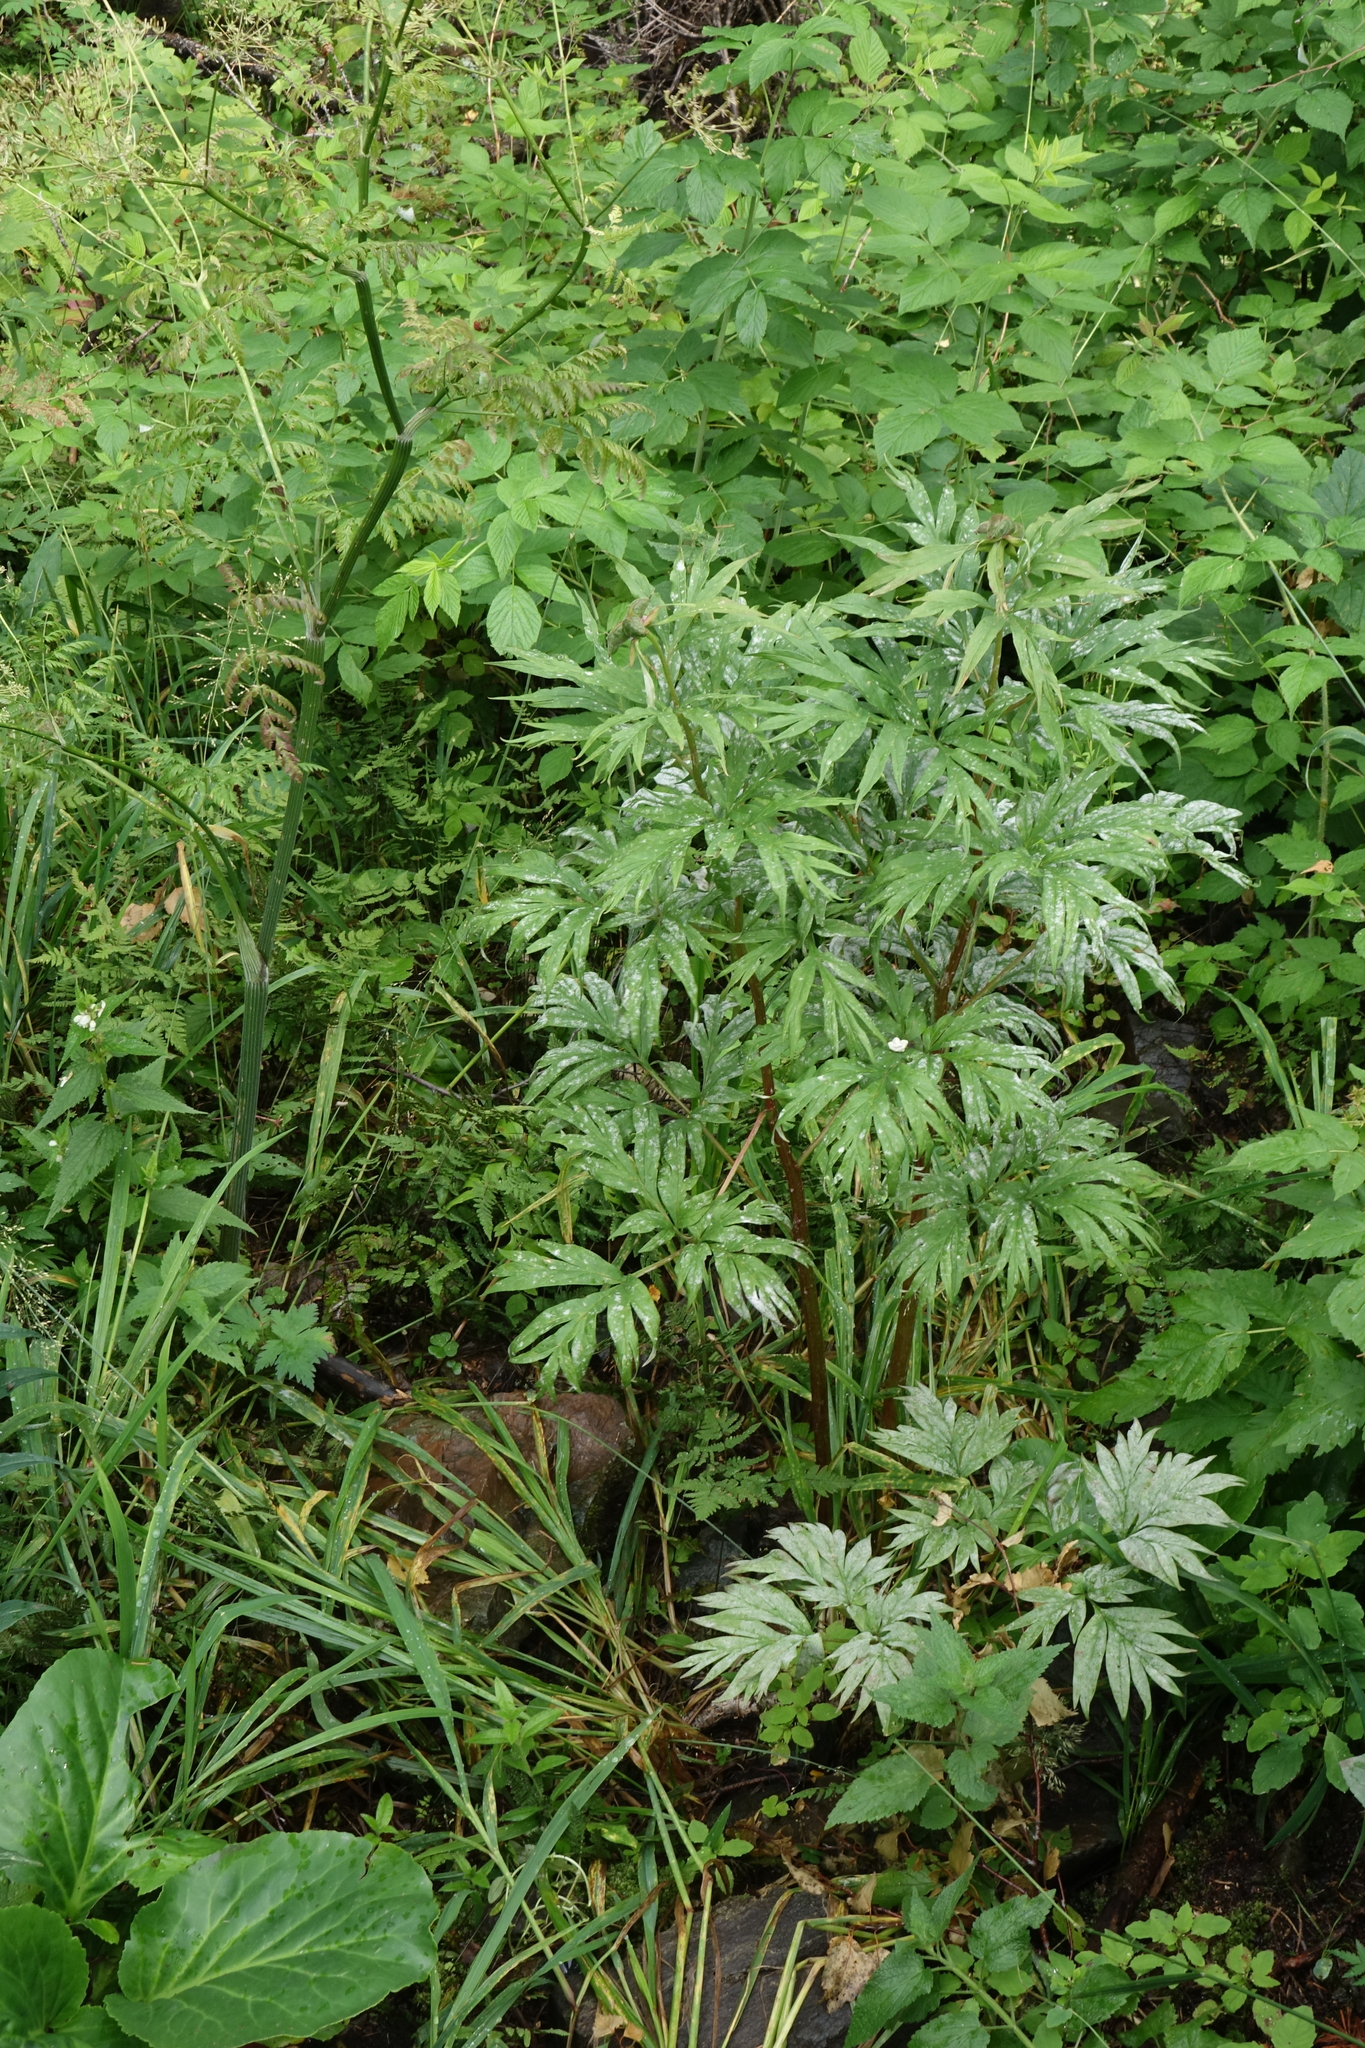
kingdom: Plantae
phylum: Tracheophyta
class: Magnoliopsida
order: Saxifragales
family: Paeoniaceae
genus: Paeonia
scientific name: Paeonia anomala
